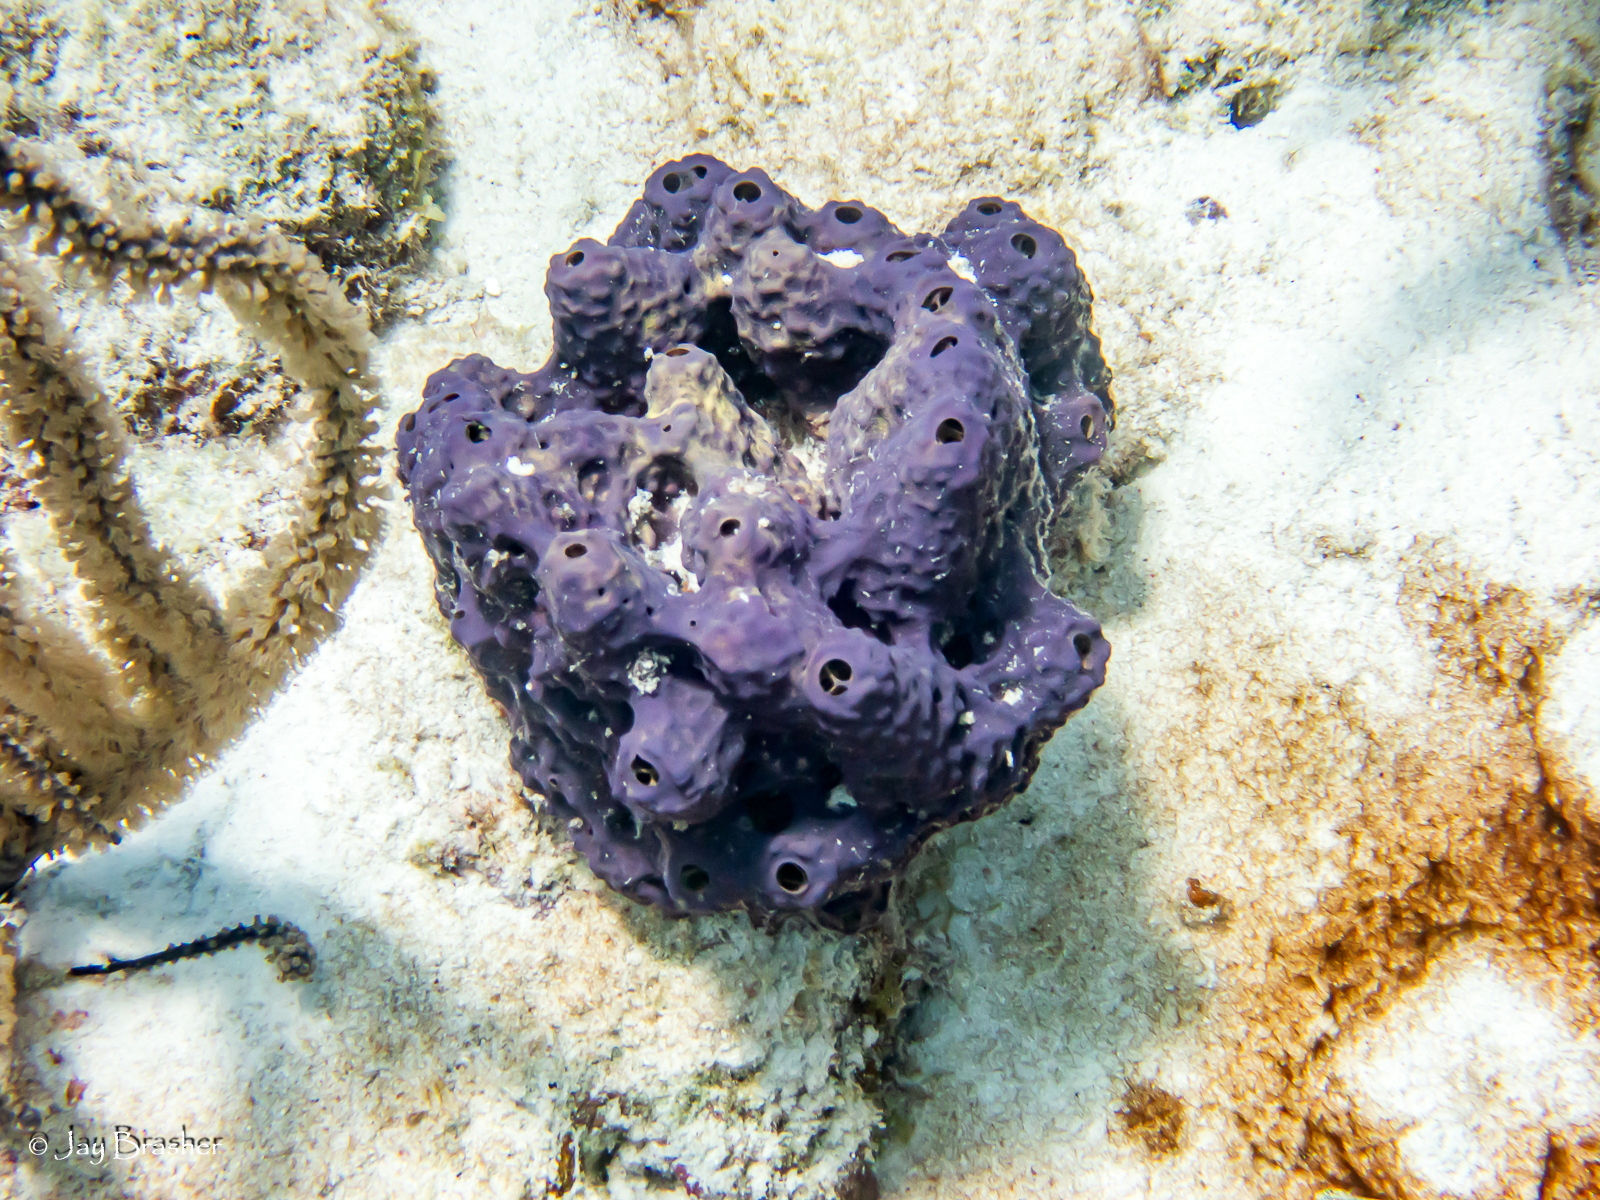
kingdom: Animalia
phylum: Porifera
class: Demospongiae
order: Verongiida
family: Aplysinidae
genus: Aiolochroia
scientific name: Aiolochroia crassa
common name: Branching tube sponge
